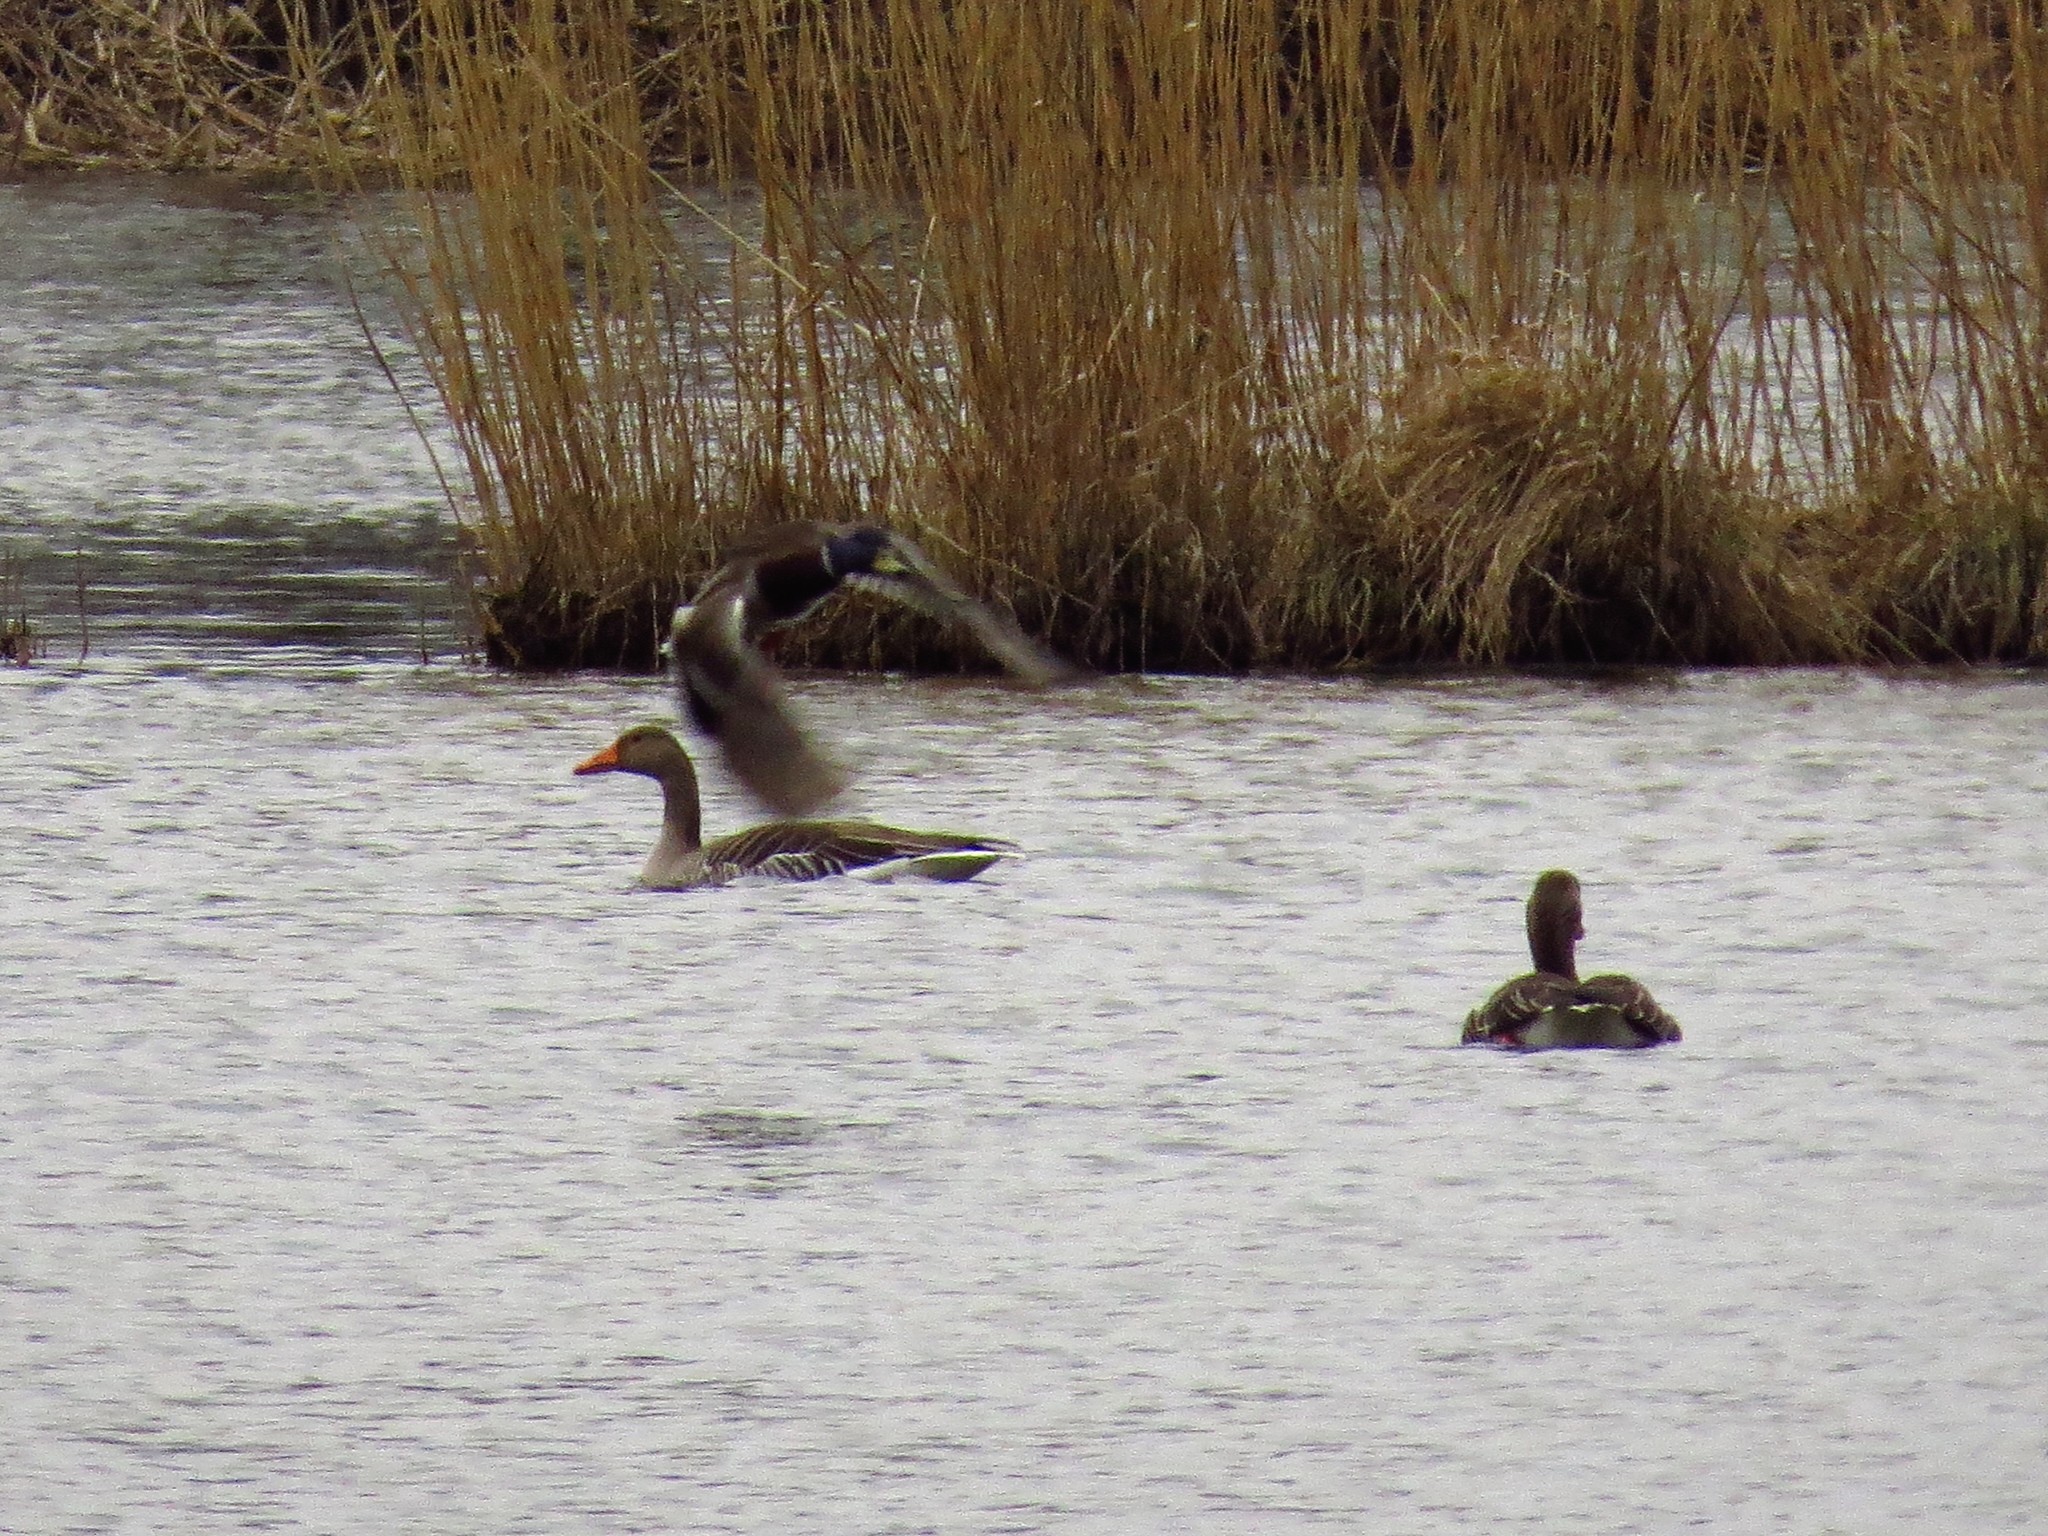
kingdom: Animalia
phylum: Chordata
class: Aves
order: Anseriformes
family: Anatidae
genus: Anser
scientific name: Anser anser
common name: Greylag goose
